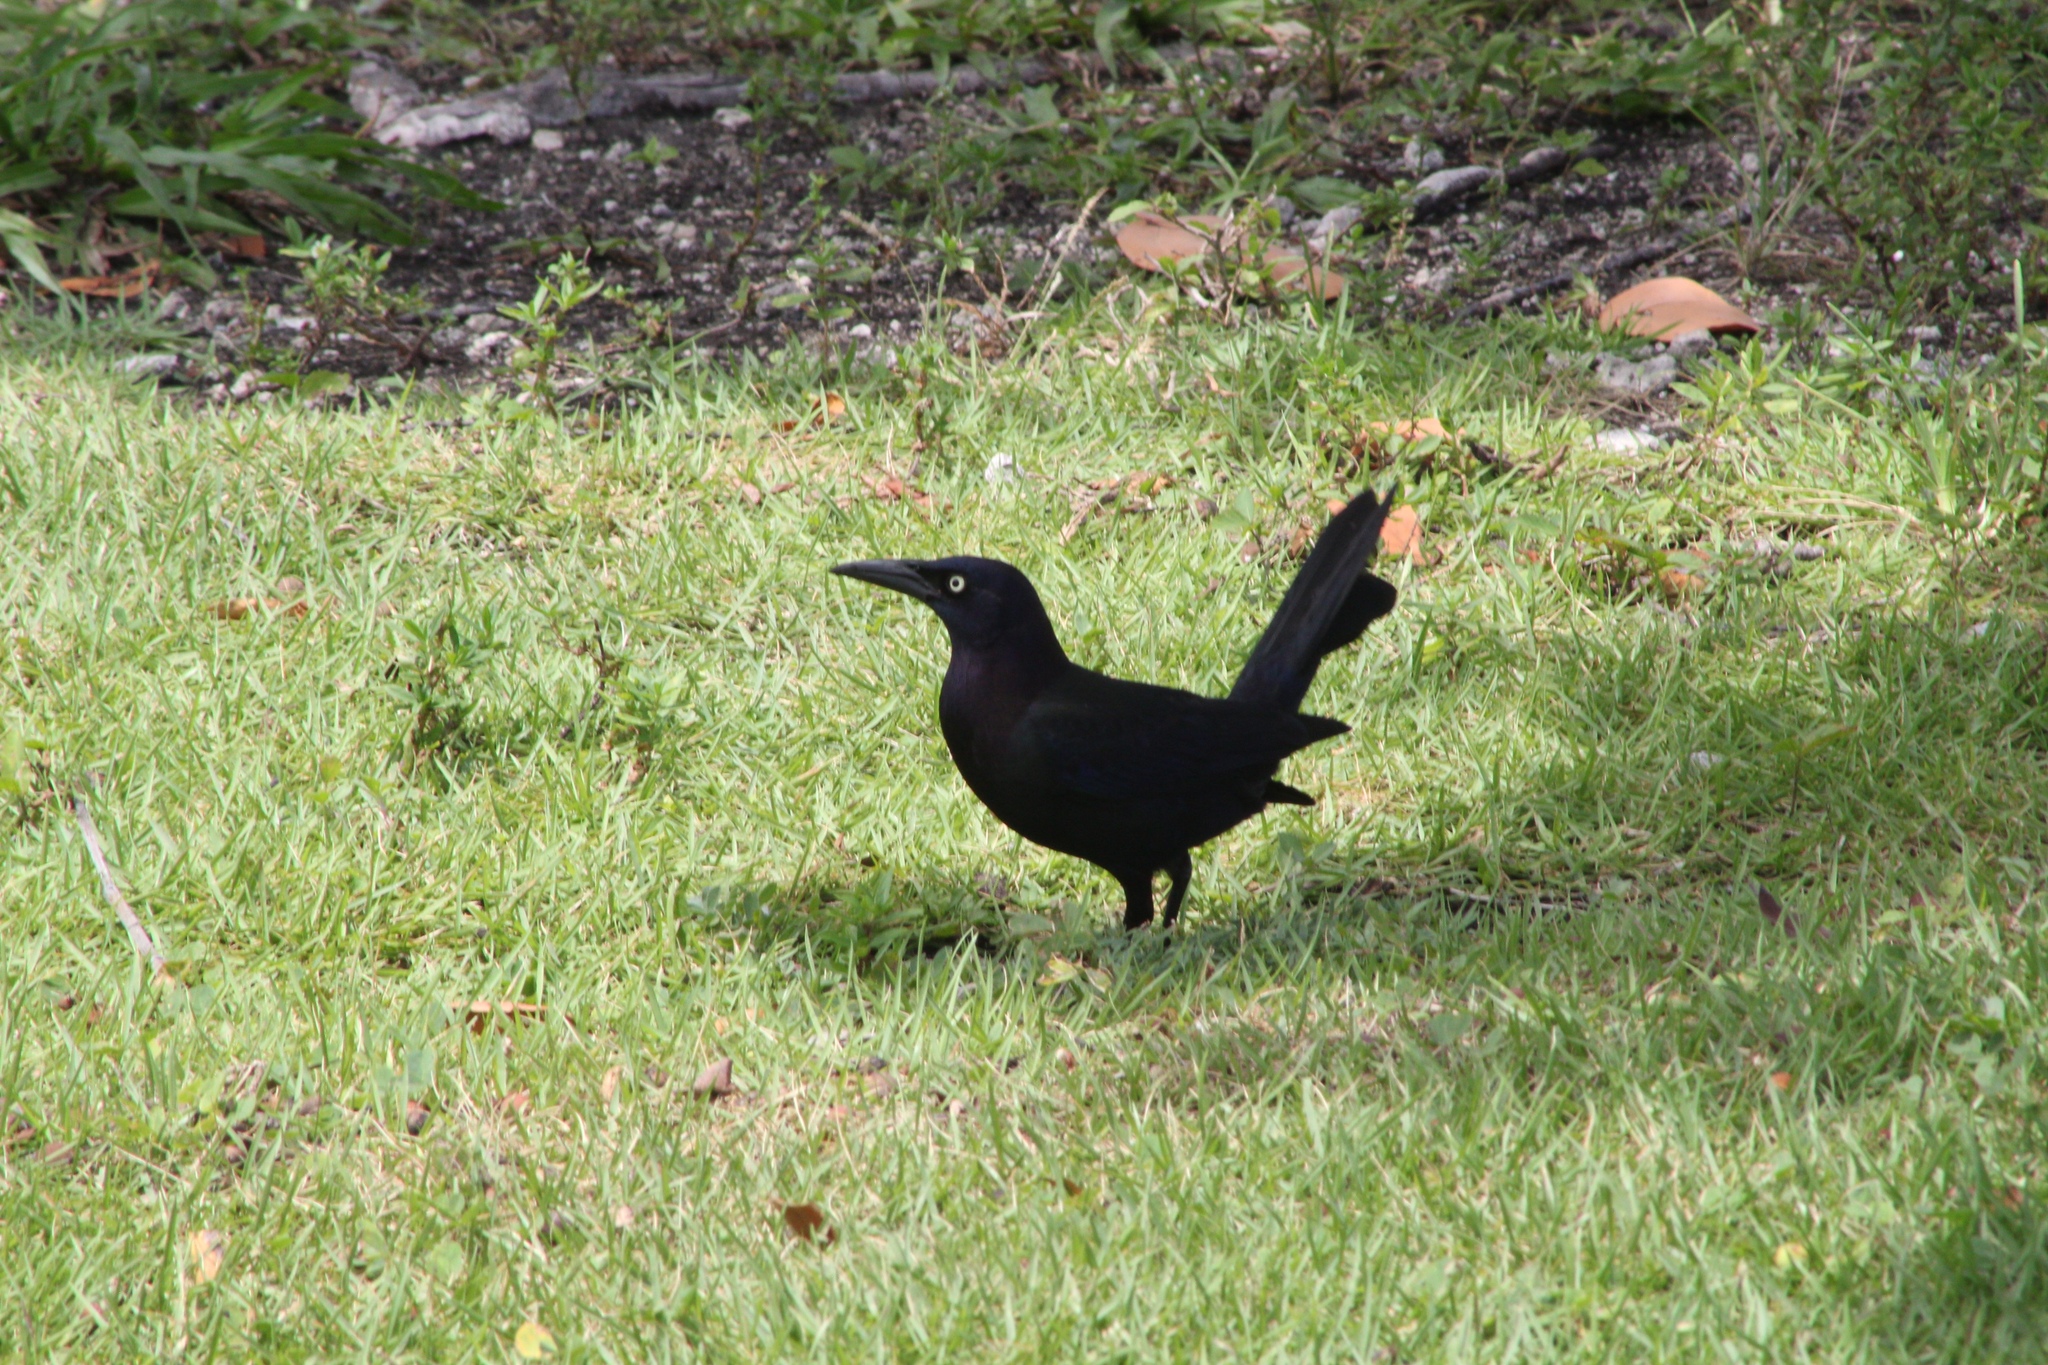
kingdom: Animalia
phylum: Chordata
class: Aves
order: Passeriformes
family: Icteridae
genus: Quiscalus
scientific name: Quiscalus quiscula
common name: Common grackle
